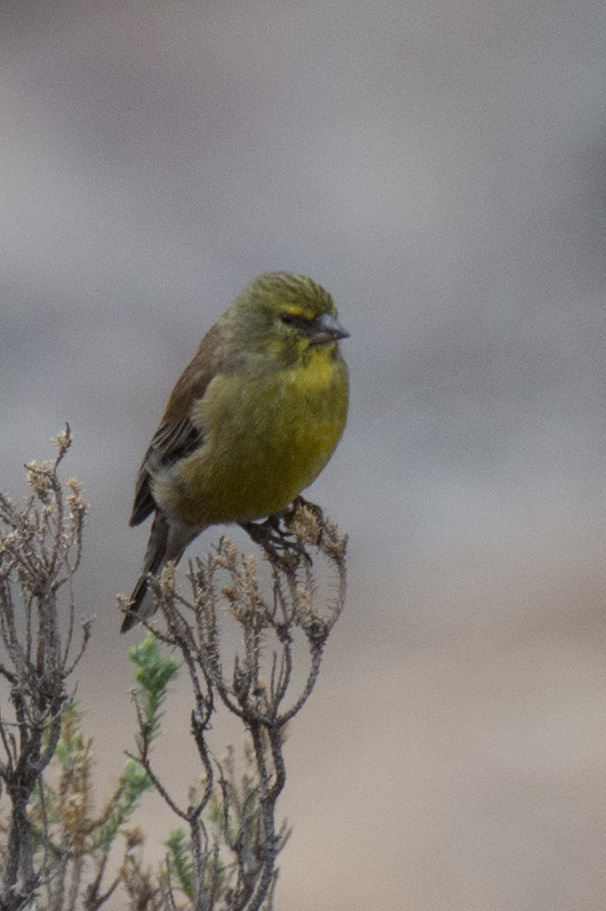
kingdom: Animalia
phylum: Chordata
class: Aves
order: Passeriformes
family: Fringillidae
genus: Crithagra
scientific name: Crithagra symonsi
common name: Drakensberg siskin
